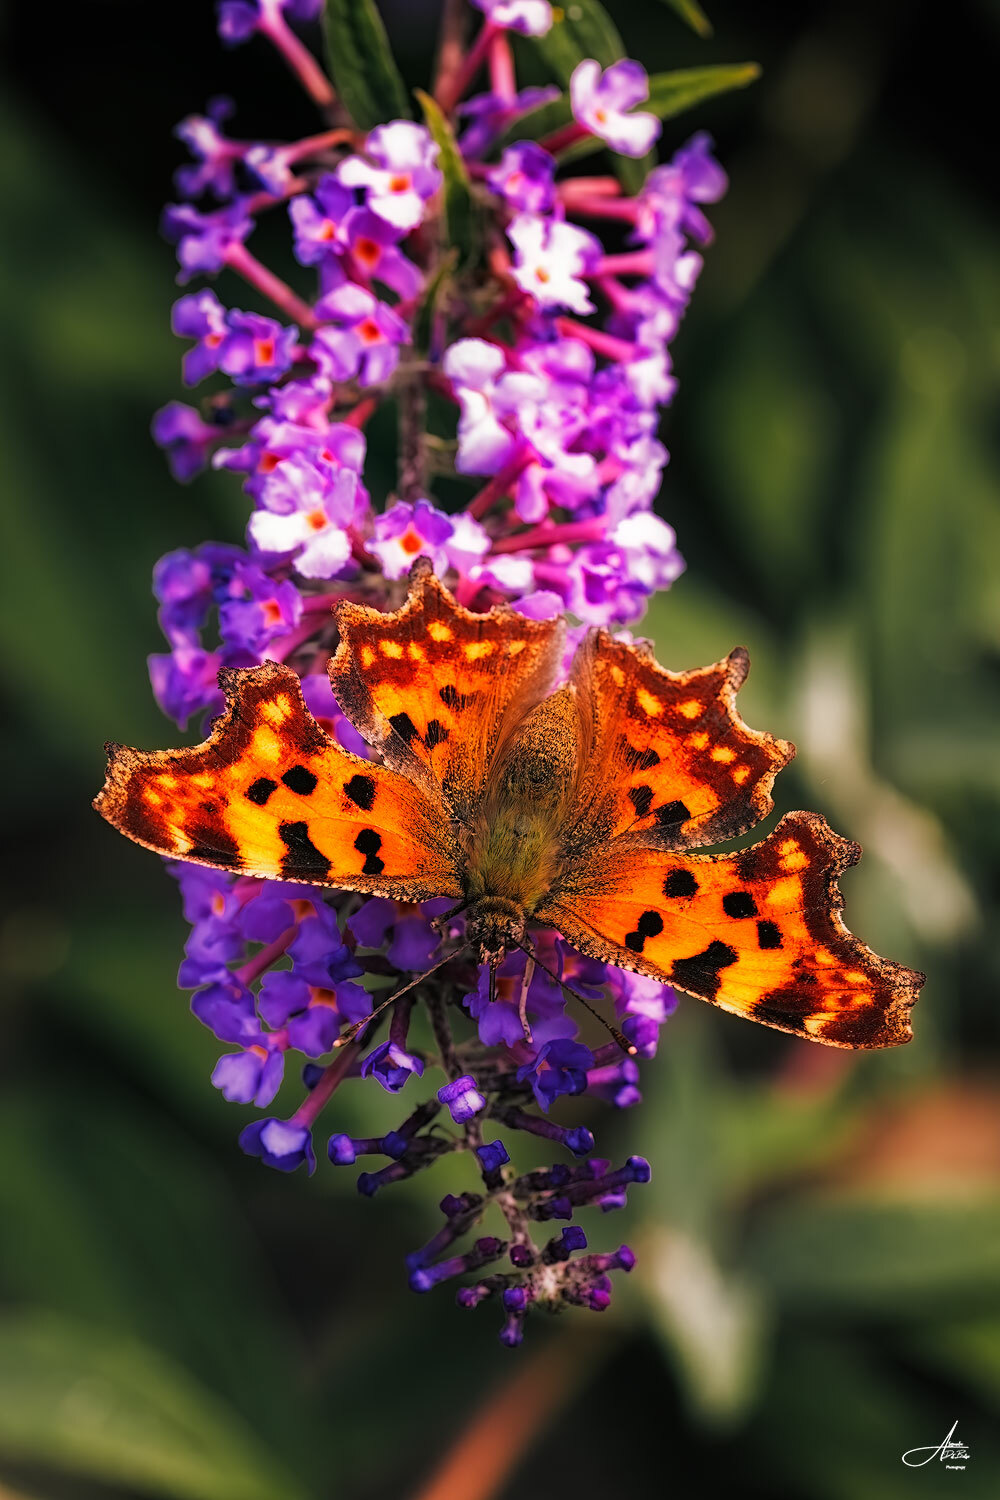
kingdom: Animalia
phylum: Arthropoda
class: Insecta
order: Lepidoptera
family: Nymphalidae
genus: Polygonia
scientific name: Polygonia c-album
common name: Comma
